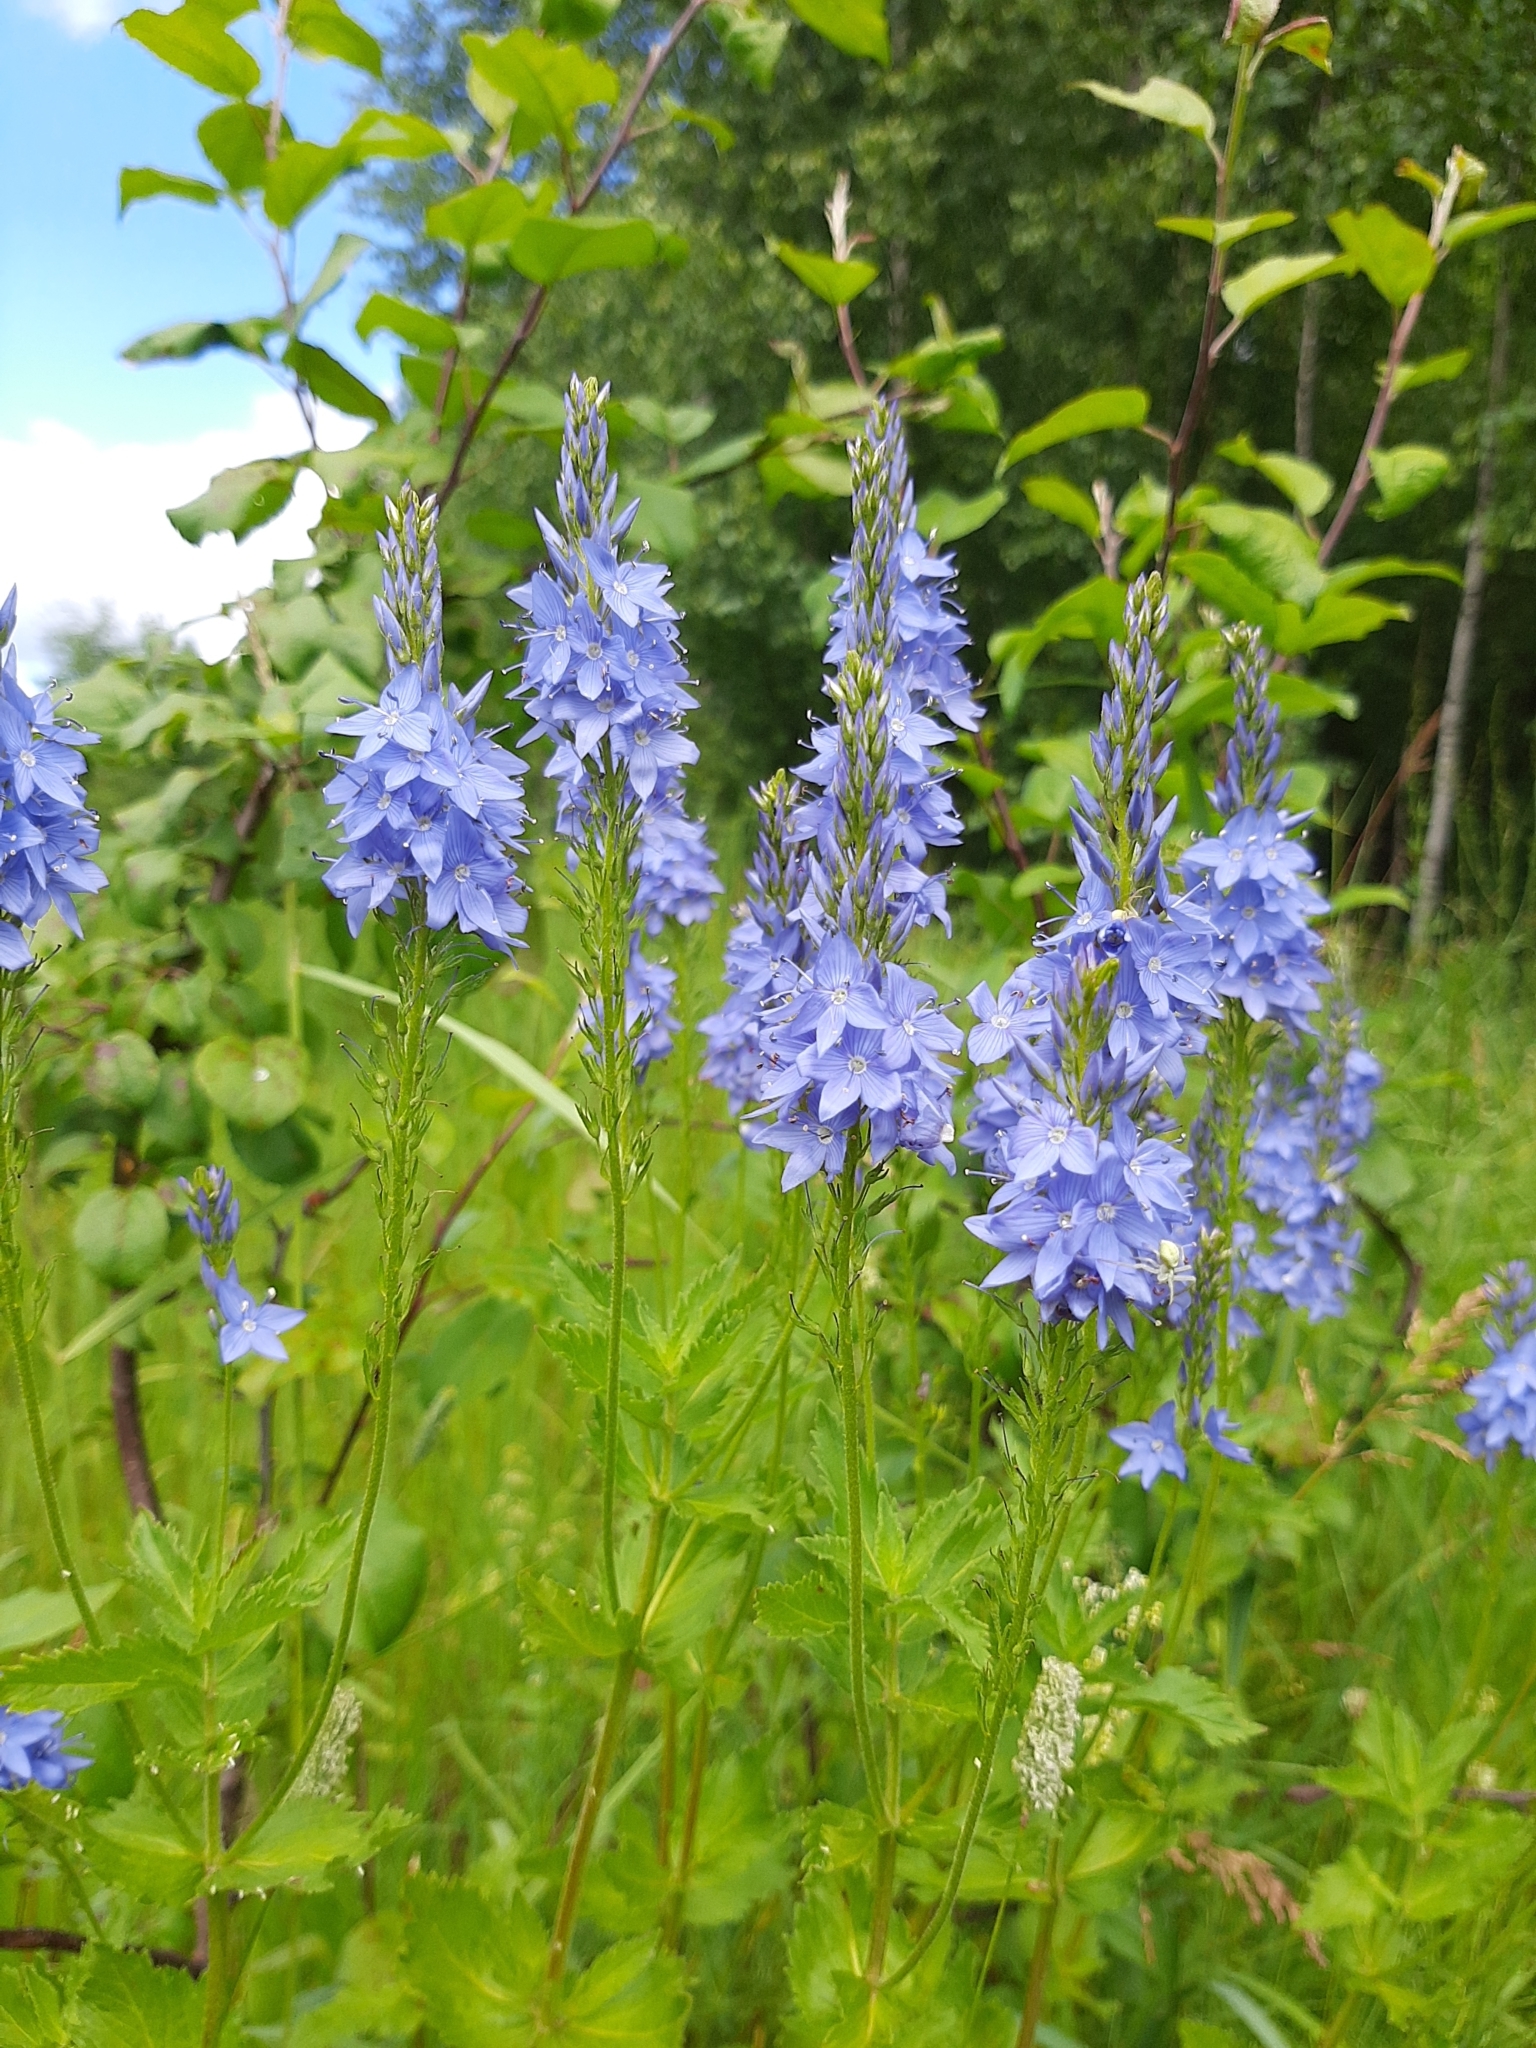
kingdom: Plantae
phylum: Tracheophyta
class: Magnoliopsida
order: Lamiales
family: Plantaginaceae
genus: Veronica
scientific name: Veronica teucrium
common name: Large speedwell
